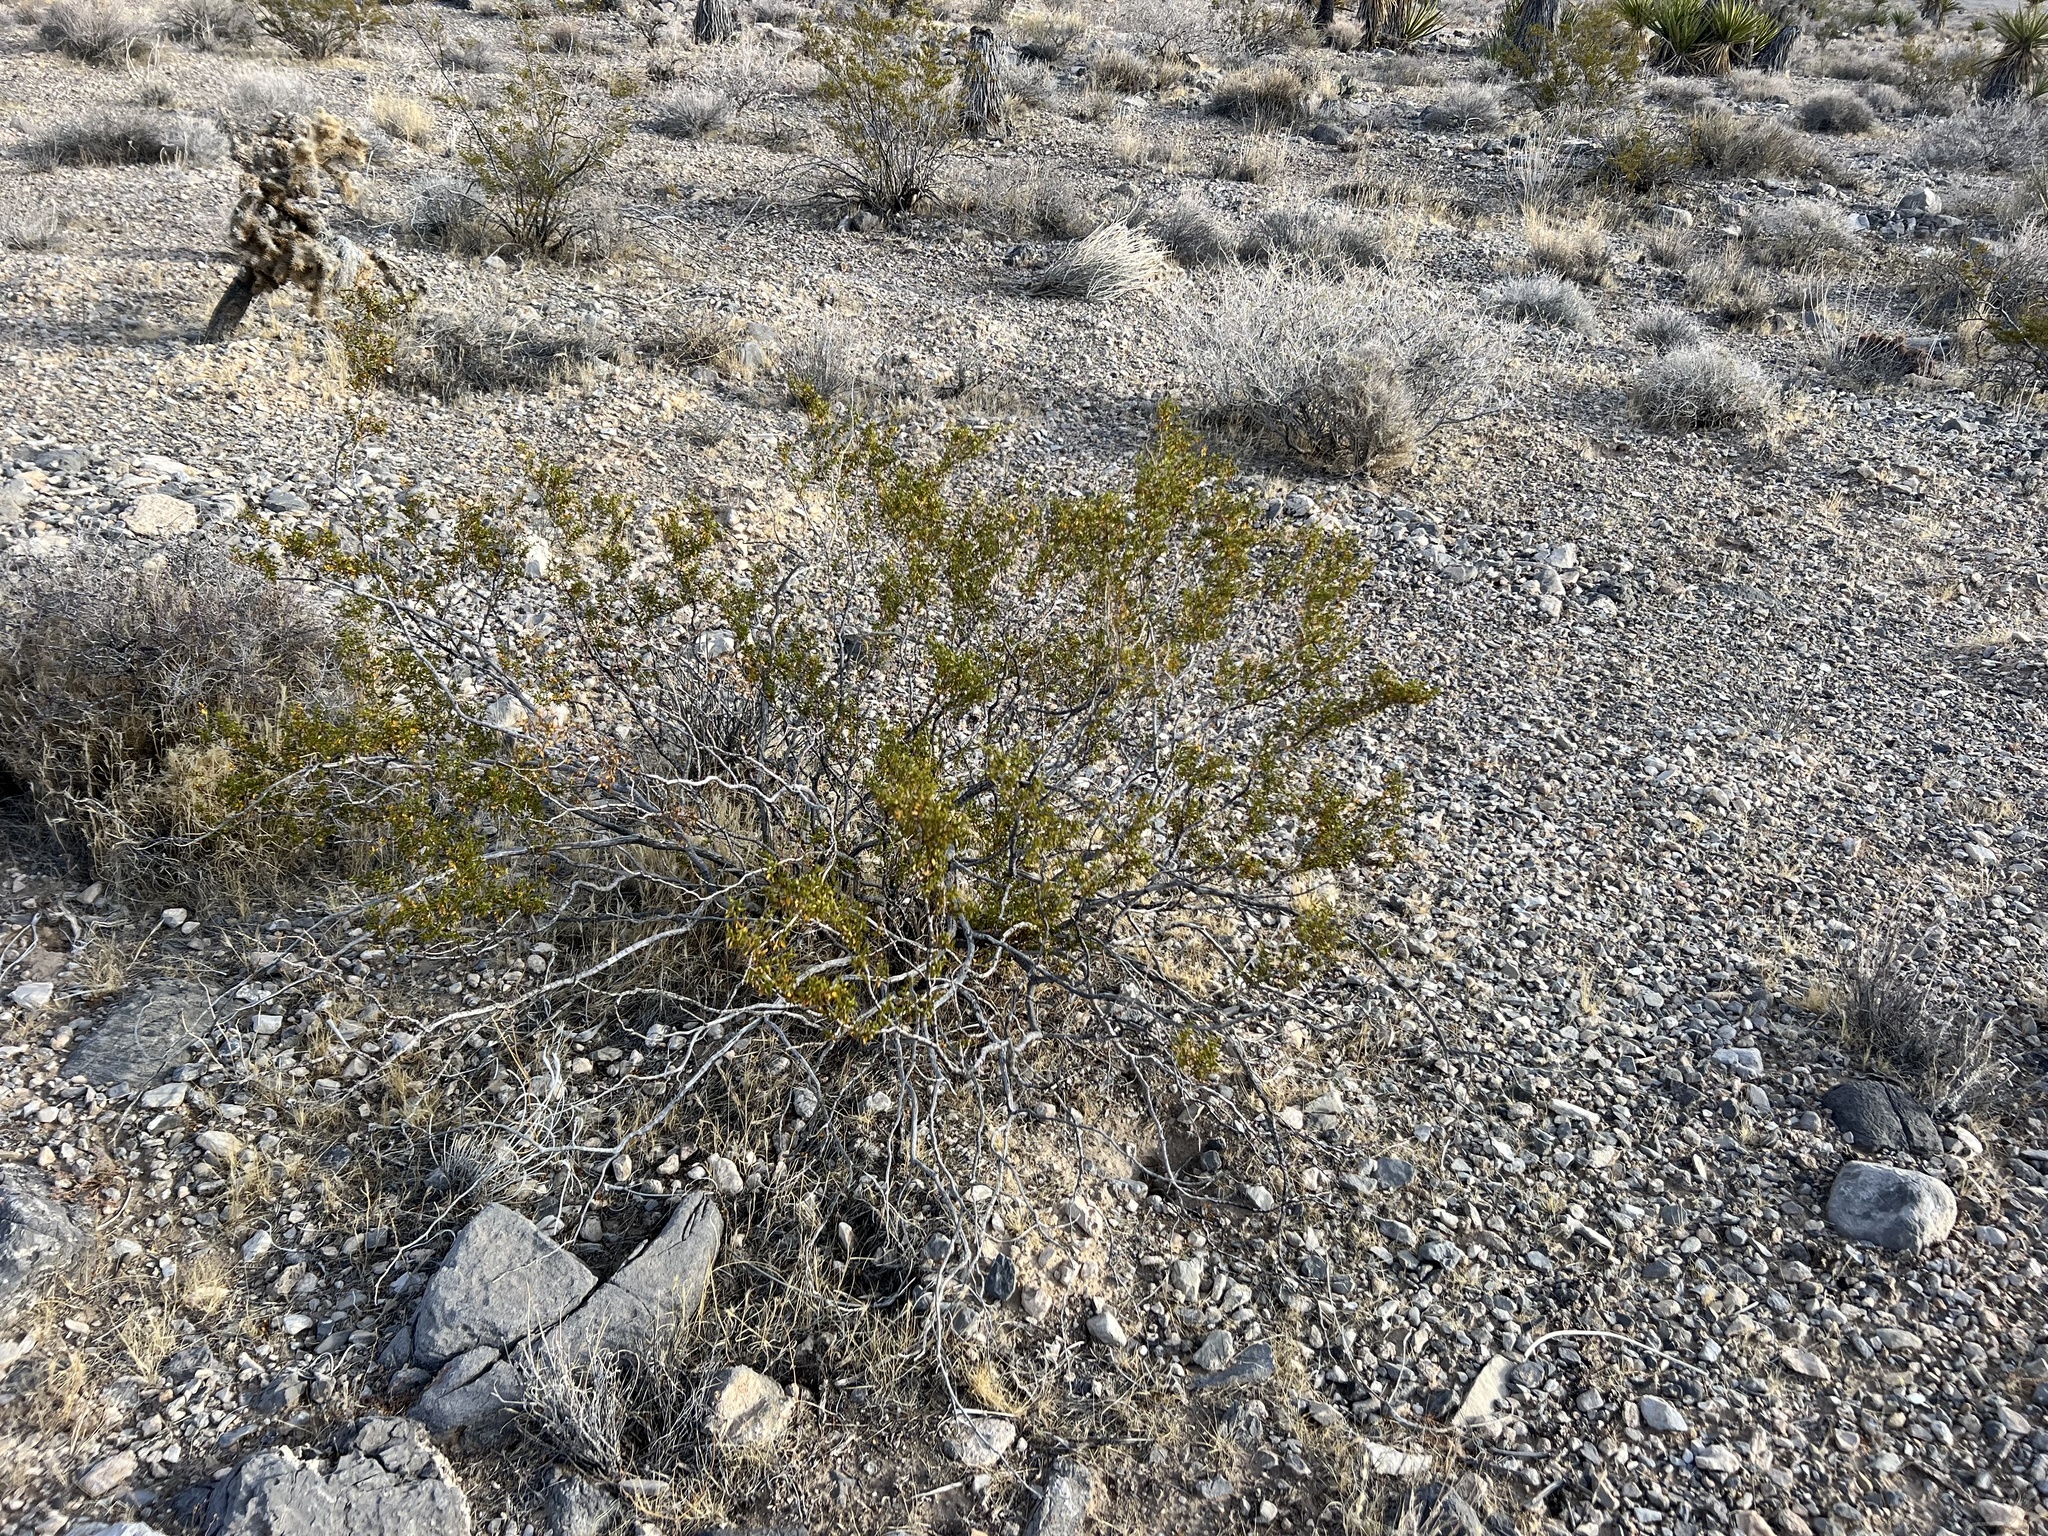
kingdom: Plantae
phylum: Tracheophyta
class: Magnoliopsida
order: Zygophyllales
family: Zygophyllaceae
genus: Larrea
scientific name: Larrea tridentata
